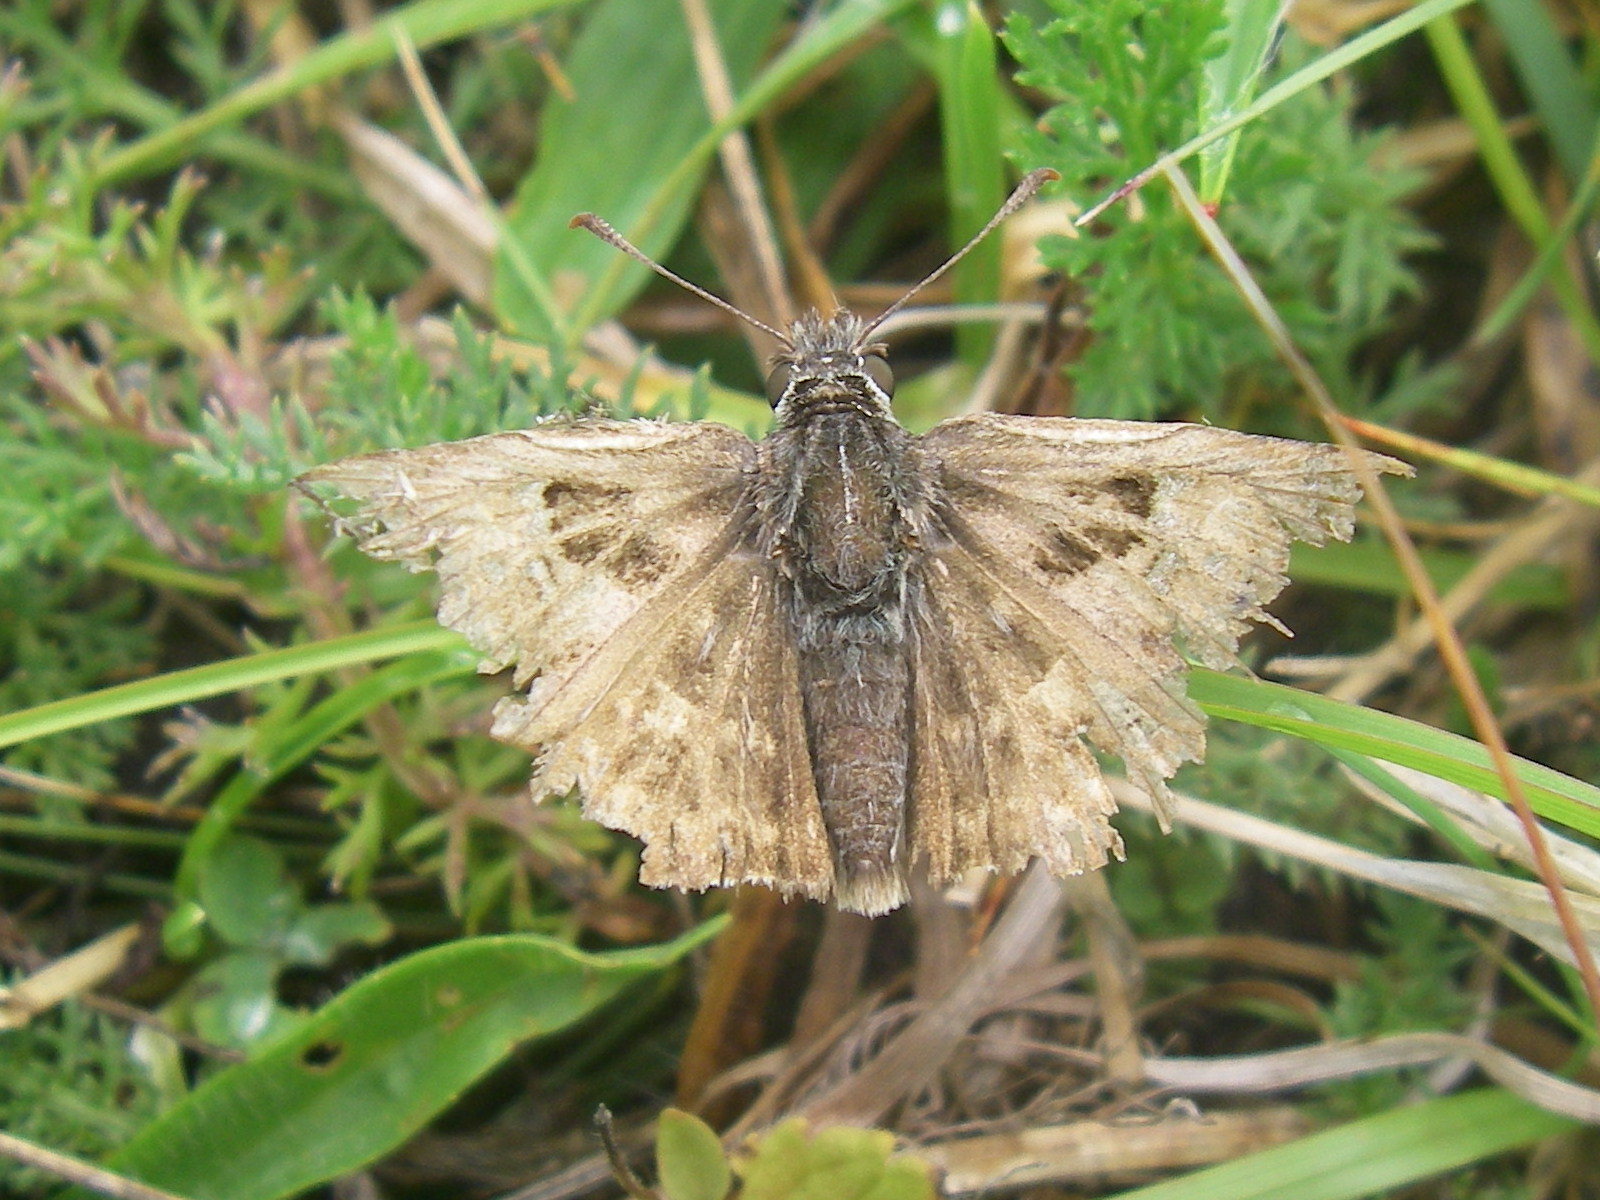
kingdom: Animalia
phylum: Arthropoda
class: Insecta
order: Lepidoptera
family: Hesperiidae
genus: Carcharodus
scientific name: Carcharodus alceae
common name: Mallow skipper
